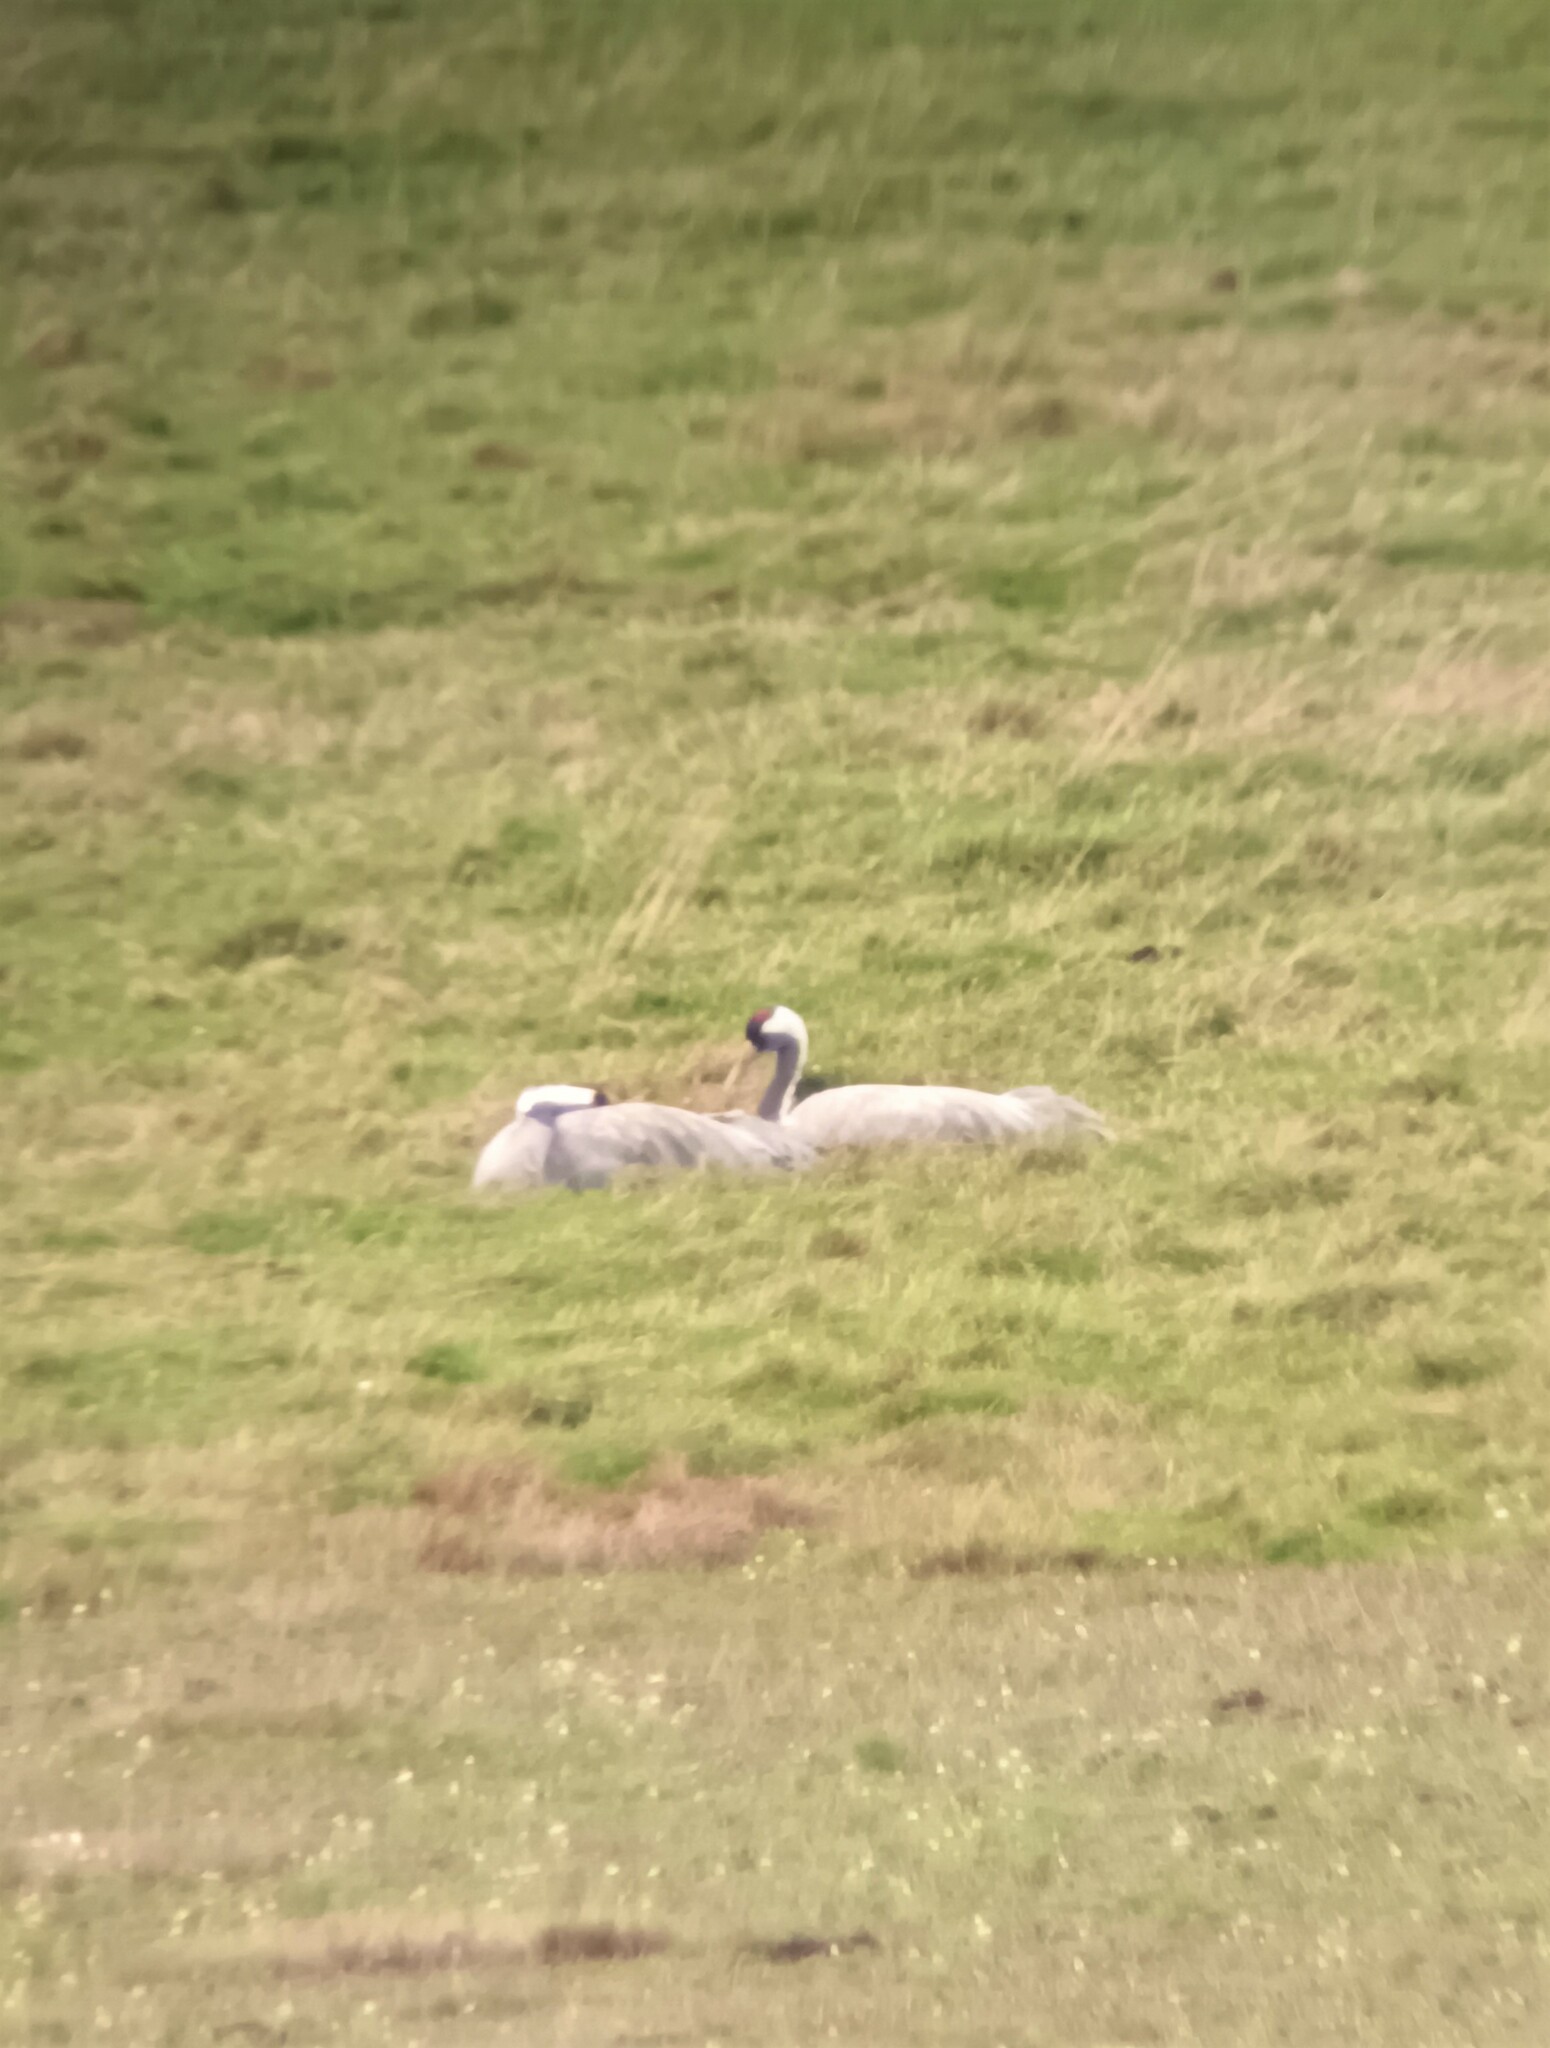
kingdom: Animalia
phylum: Chordata
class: Aves
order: Gruiformes
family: Gruidae
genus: Grus
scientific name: Grus grus
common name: Common crane
